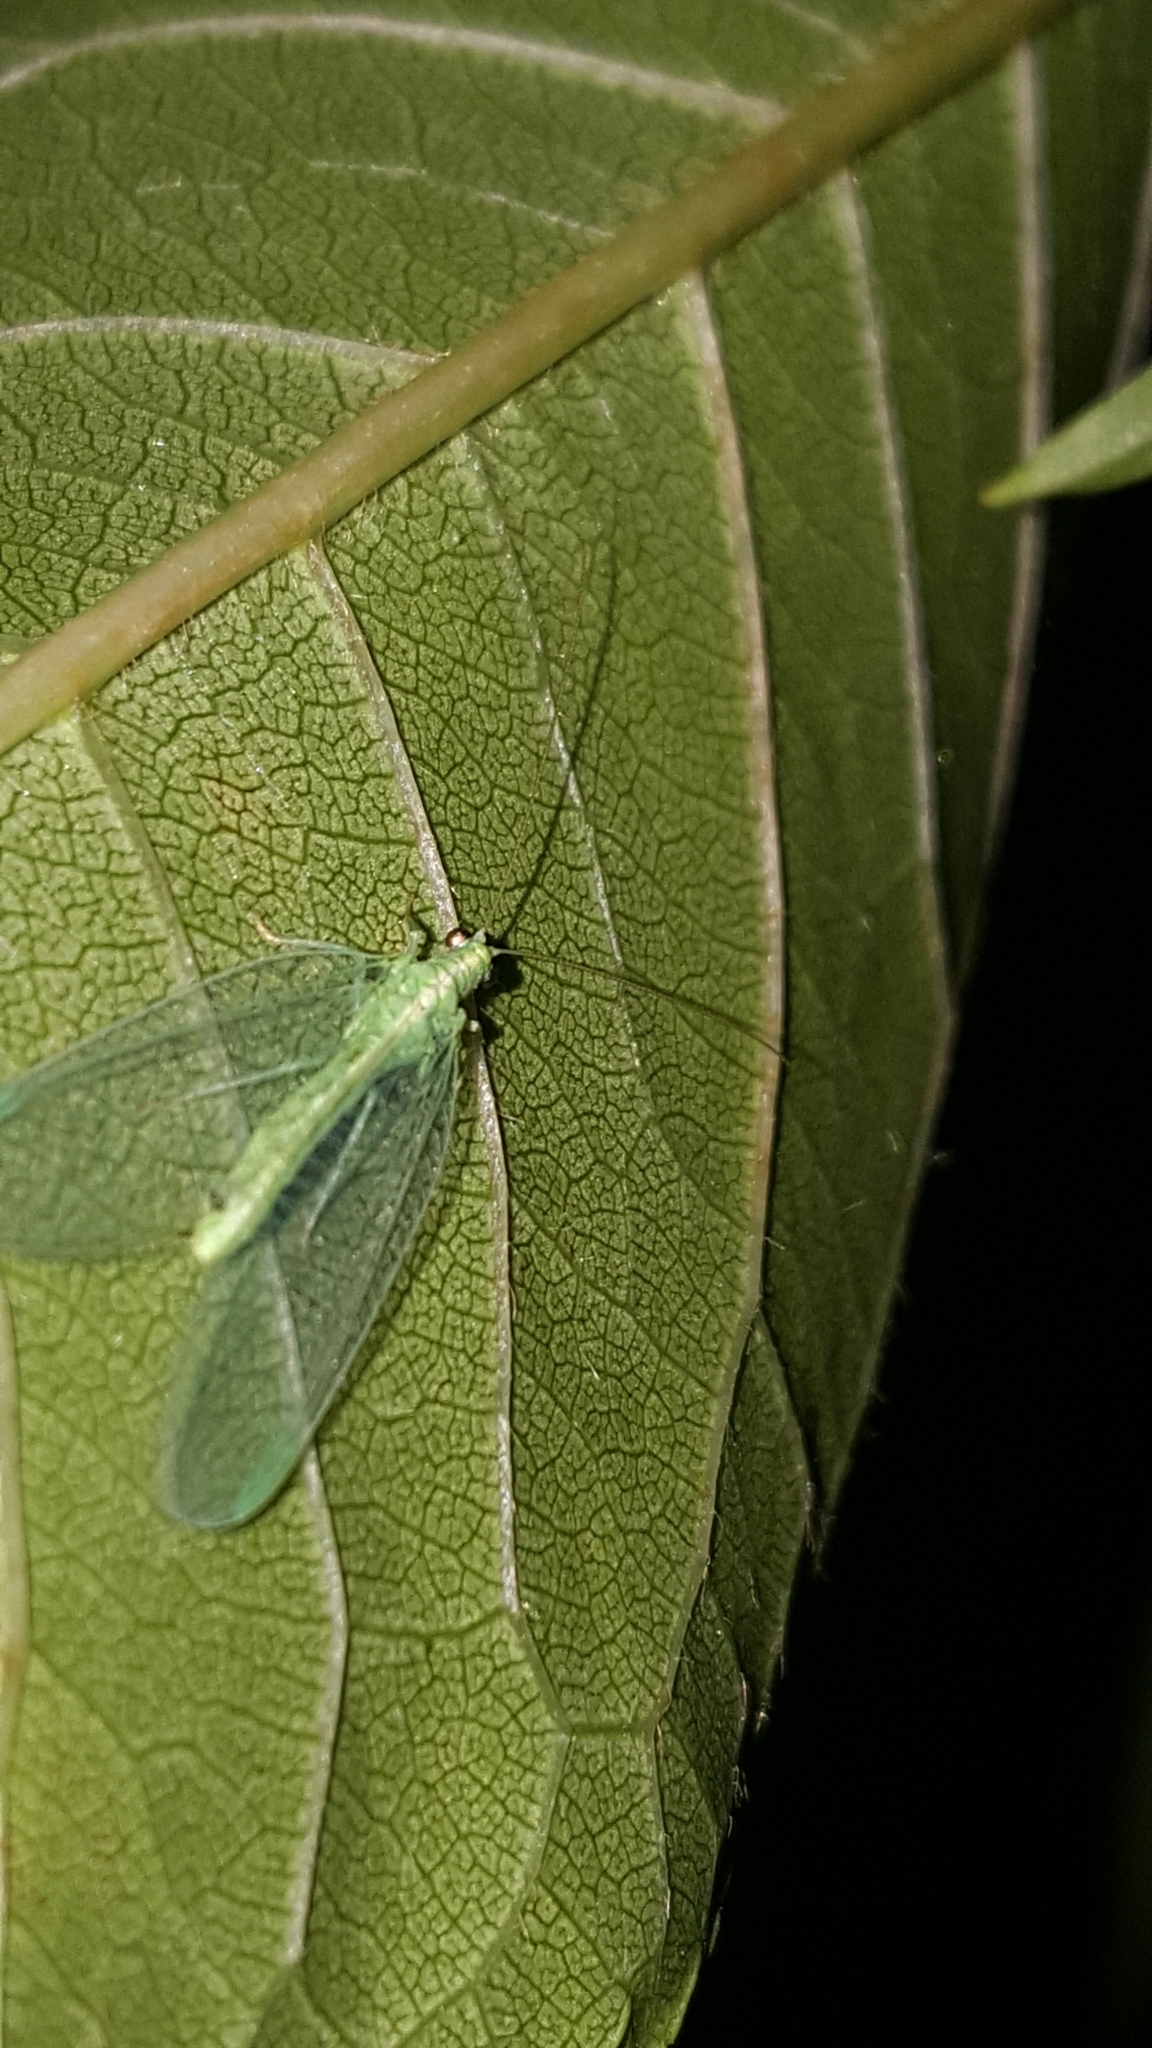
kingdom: Animalia
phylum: Arthropoda
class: Insecta
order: Neuroptera
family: Chrysopidae
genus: Chrysoperla
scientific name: Chrysoperla
